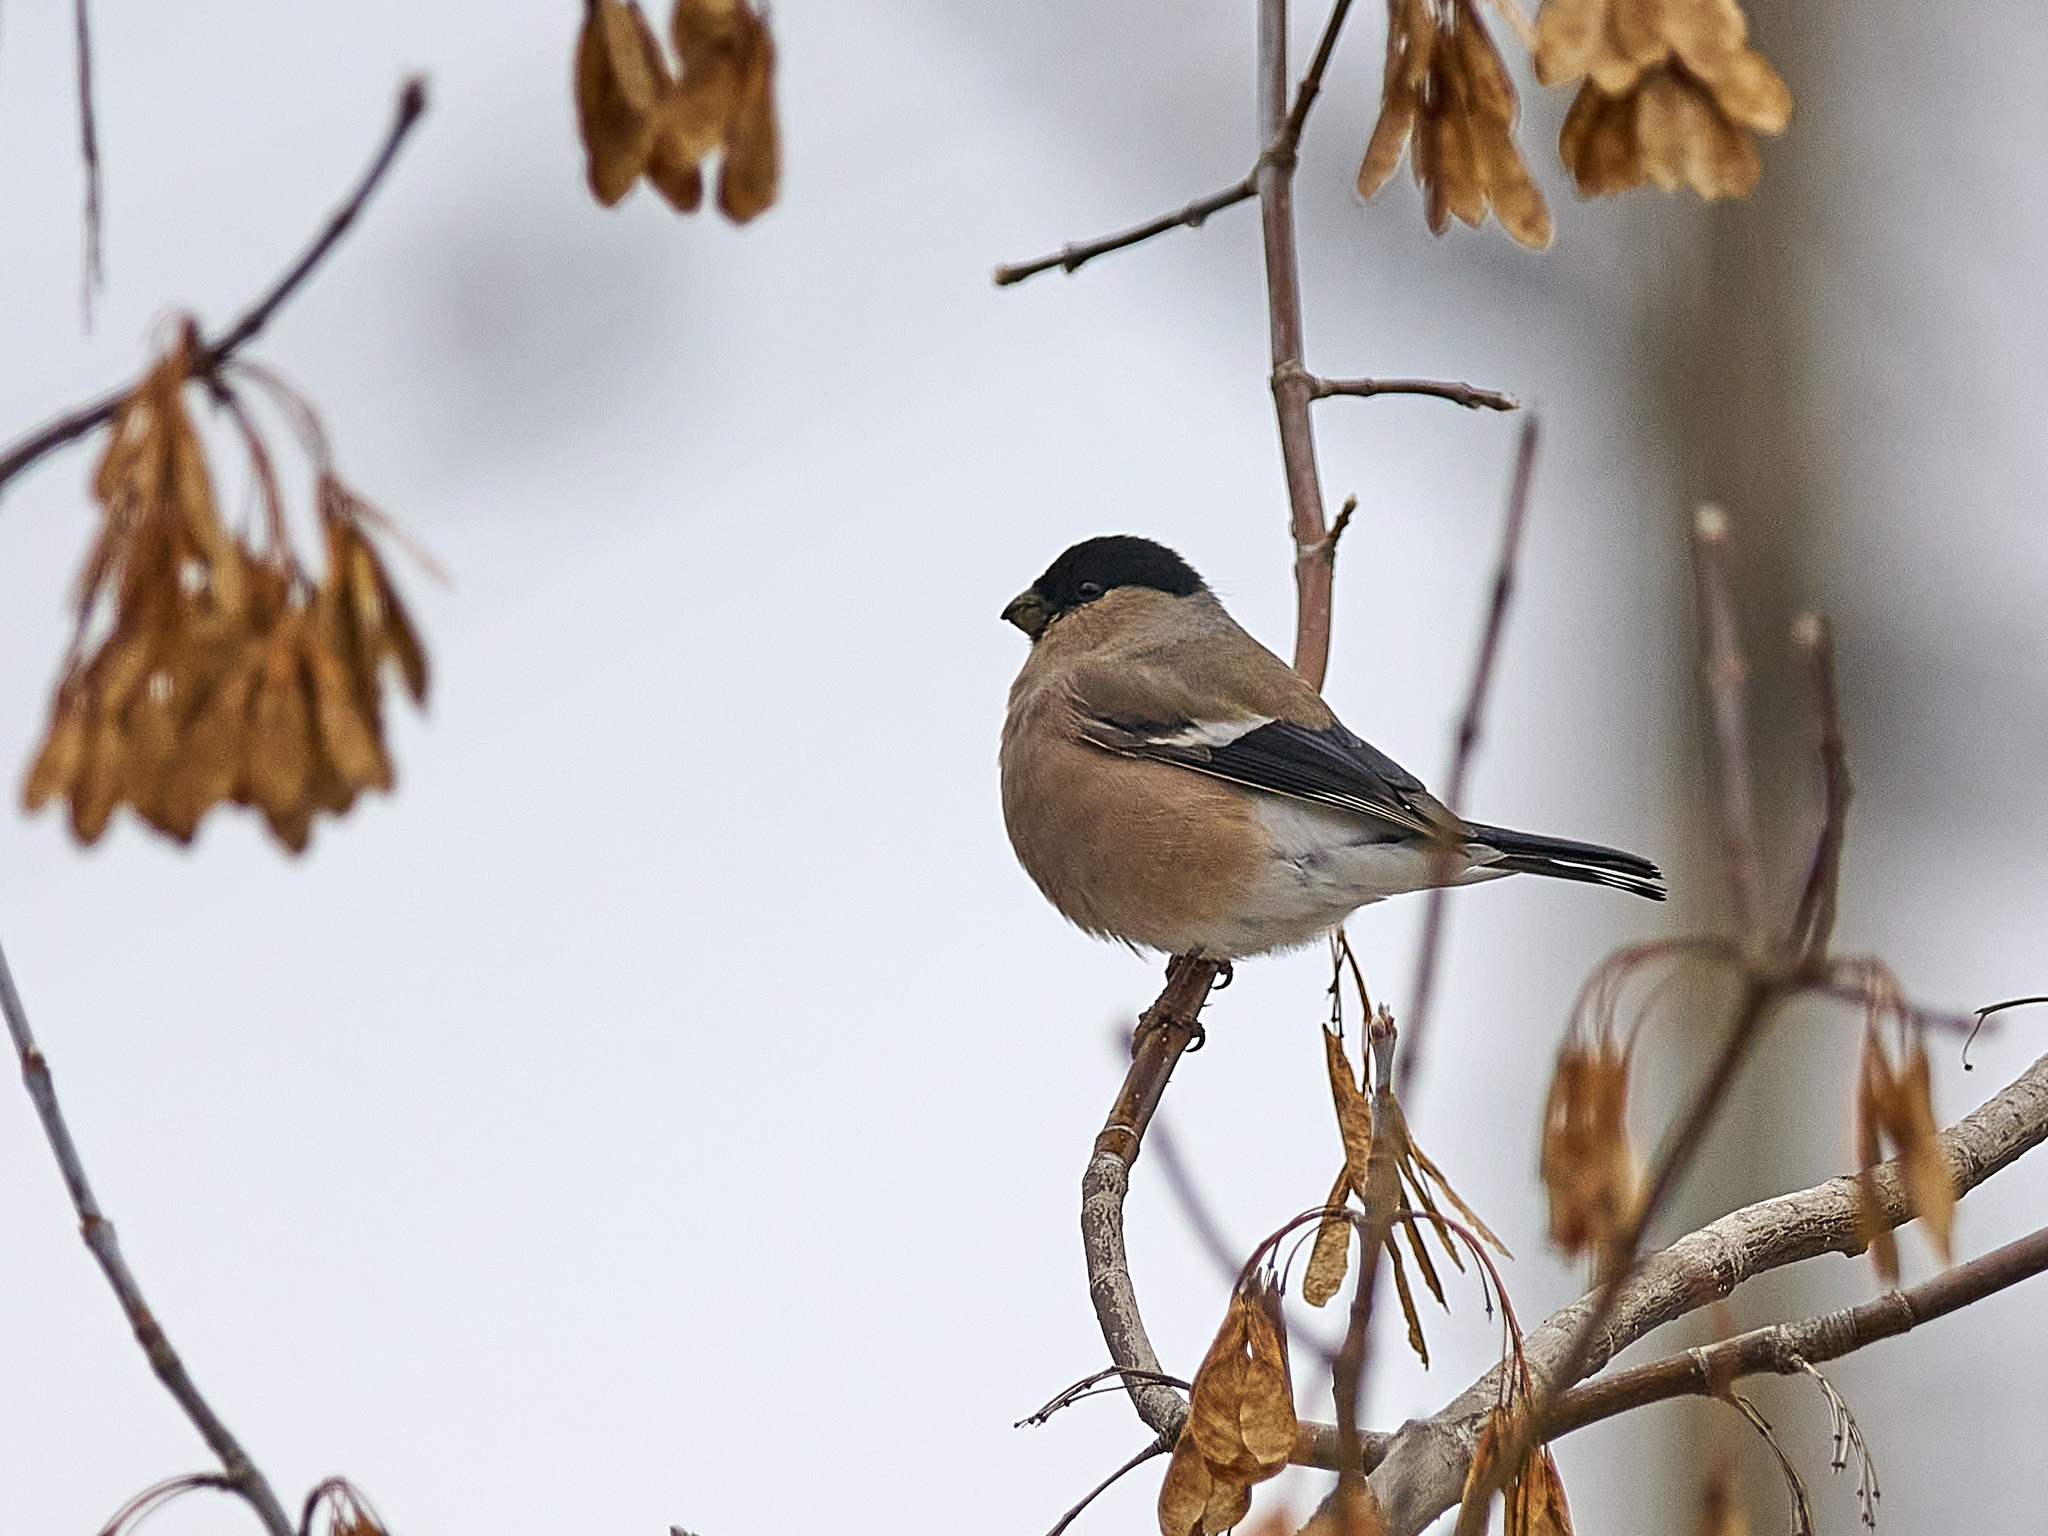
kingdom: Animalia
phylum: Chordata
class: Aves
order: Passeriformes
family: Fringillidae
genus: Pyrrhula
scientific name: Pyrrhula pyrrhula
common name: Eurasian bullfinch
